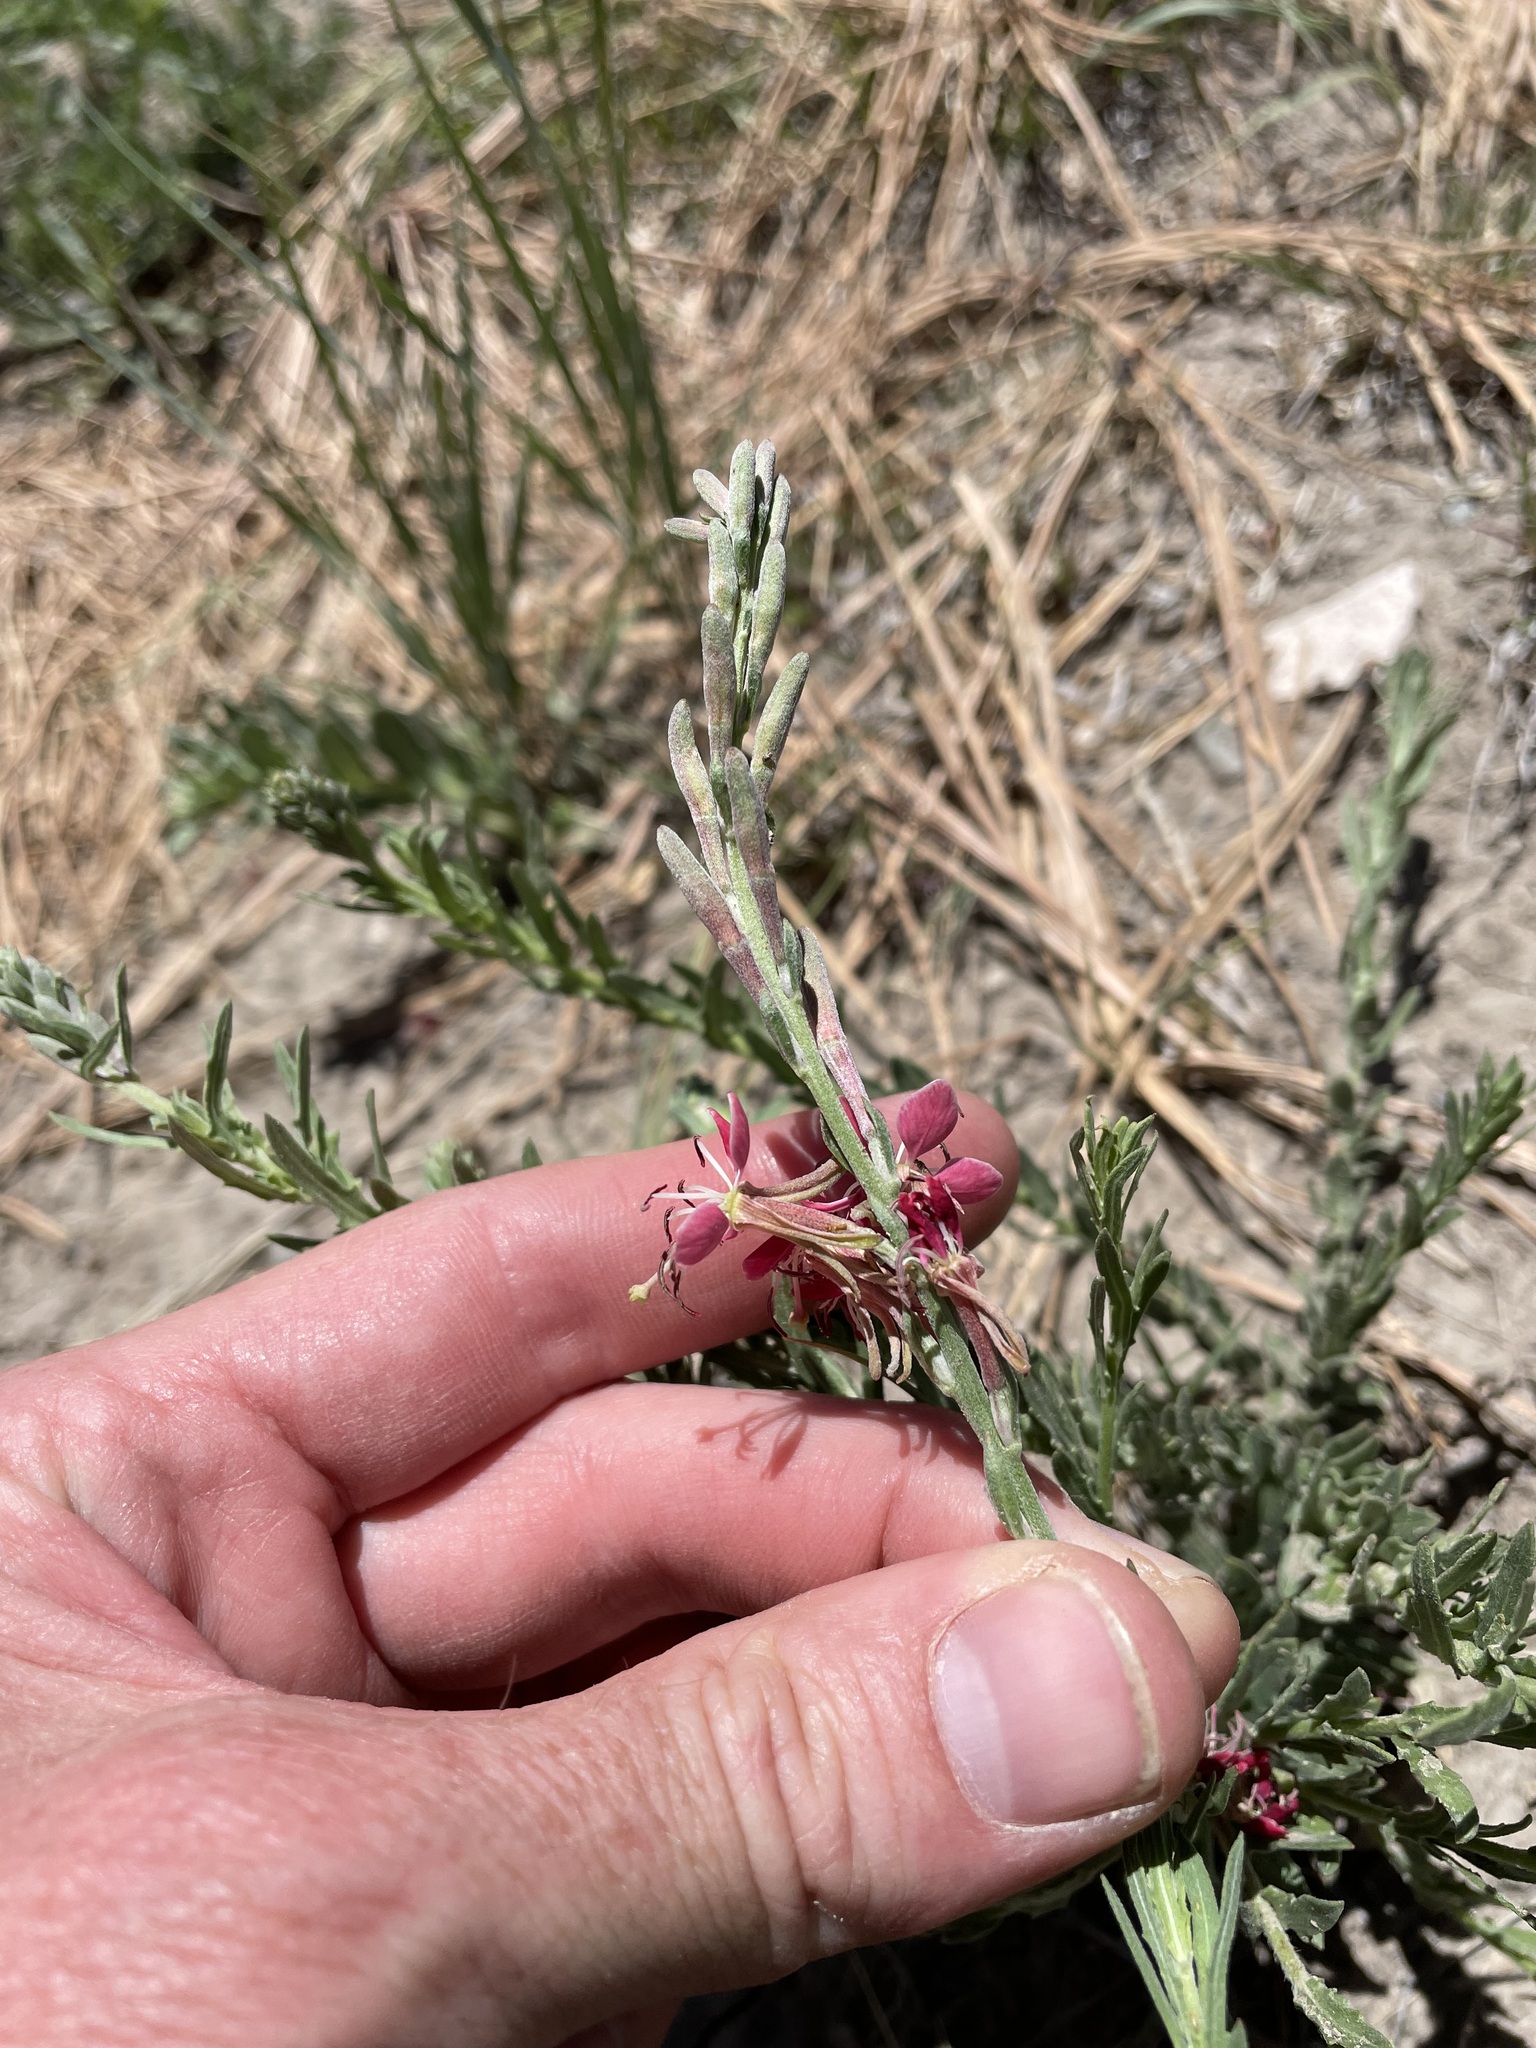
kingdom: Plantae
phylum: Tracheophyta
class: Magnoliopsida
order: Myrtales
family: Onagraceae
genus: Oenothera
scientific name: Oenothera suffrutescens
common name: Scarlet beeblossom
